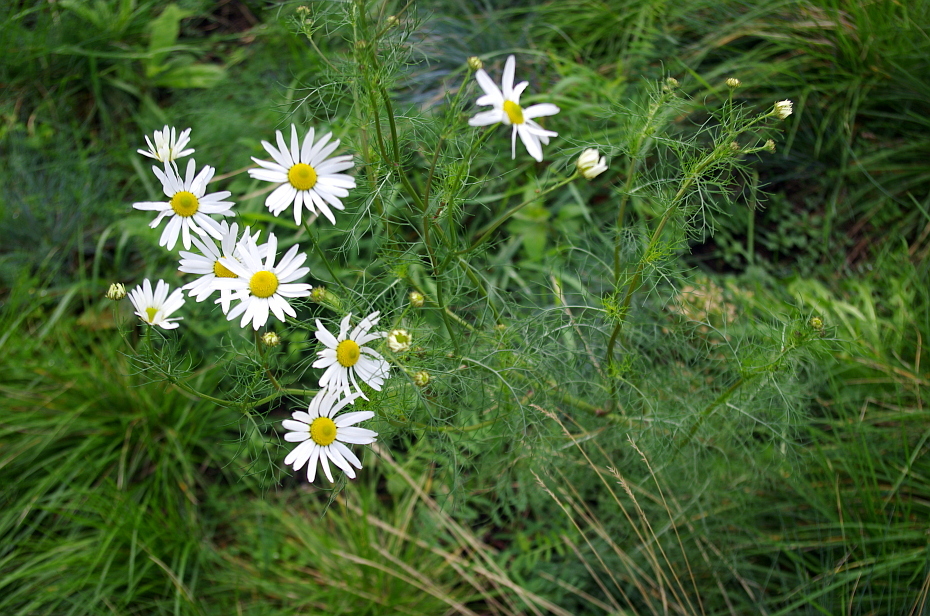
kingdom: Plantae
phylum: Tracheophyta
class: Magnoliopsida
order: Asterales
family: Asteraceae
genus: Tripleurospermum
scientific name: Tripleurospermum inodorum
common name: Scentless mayweed
